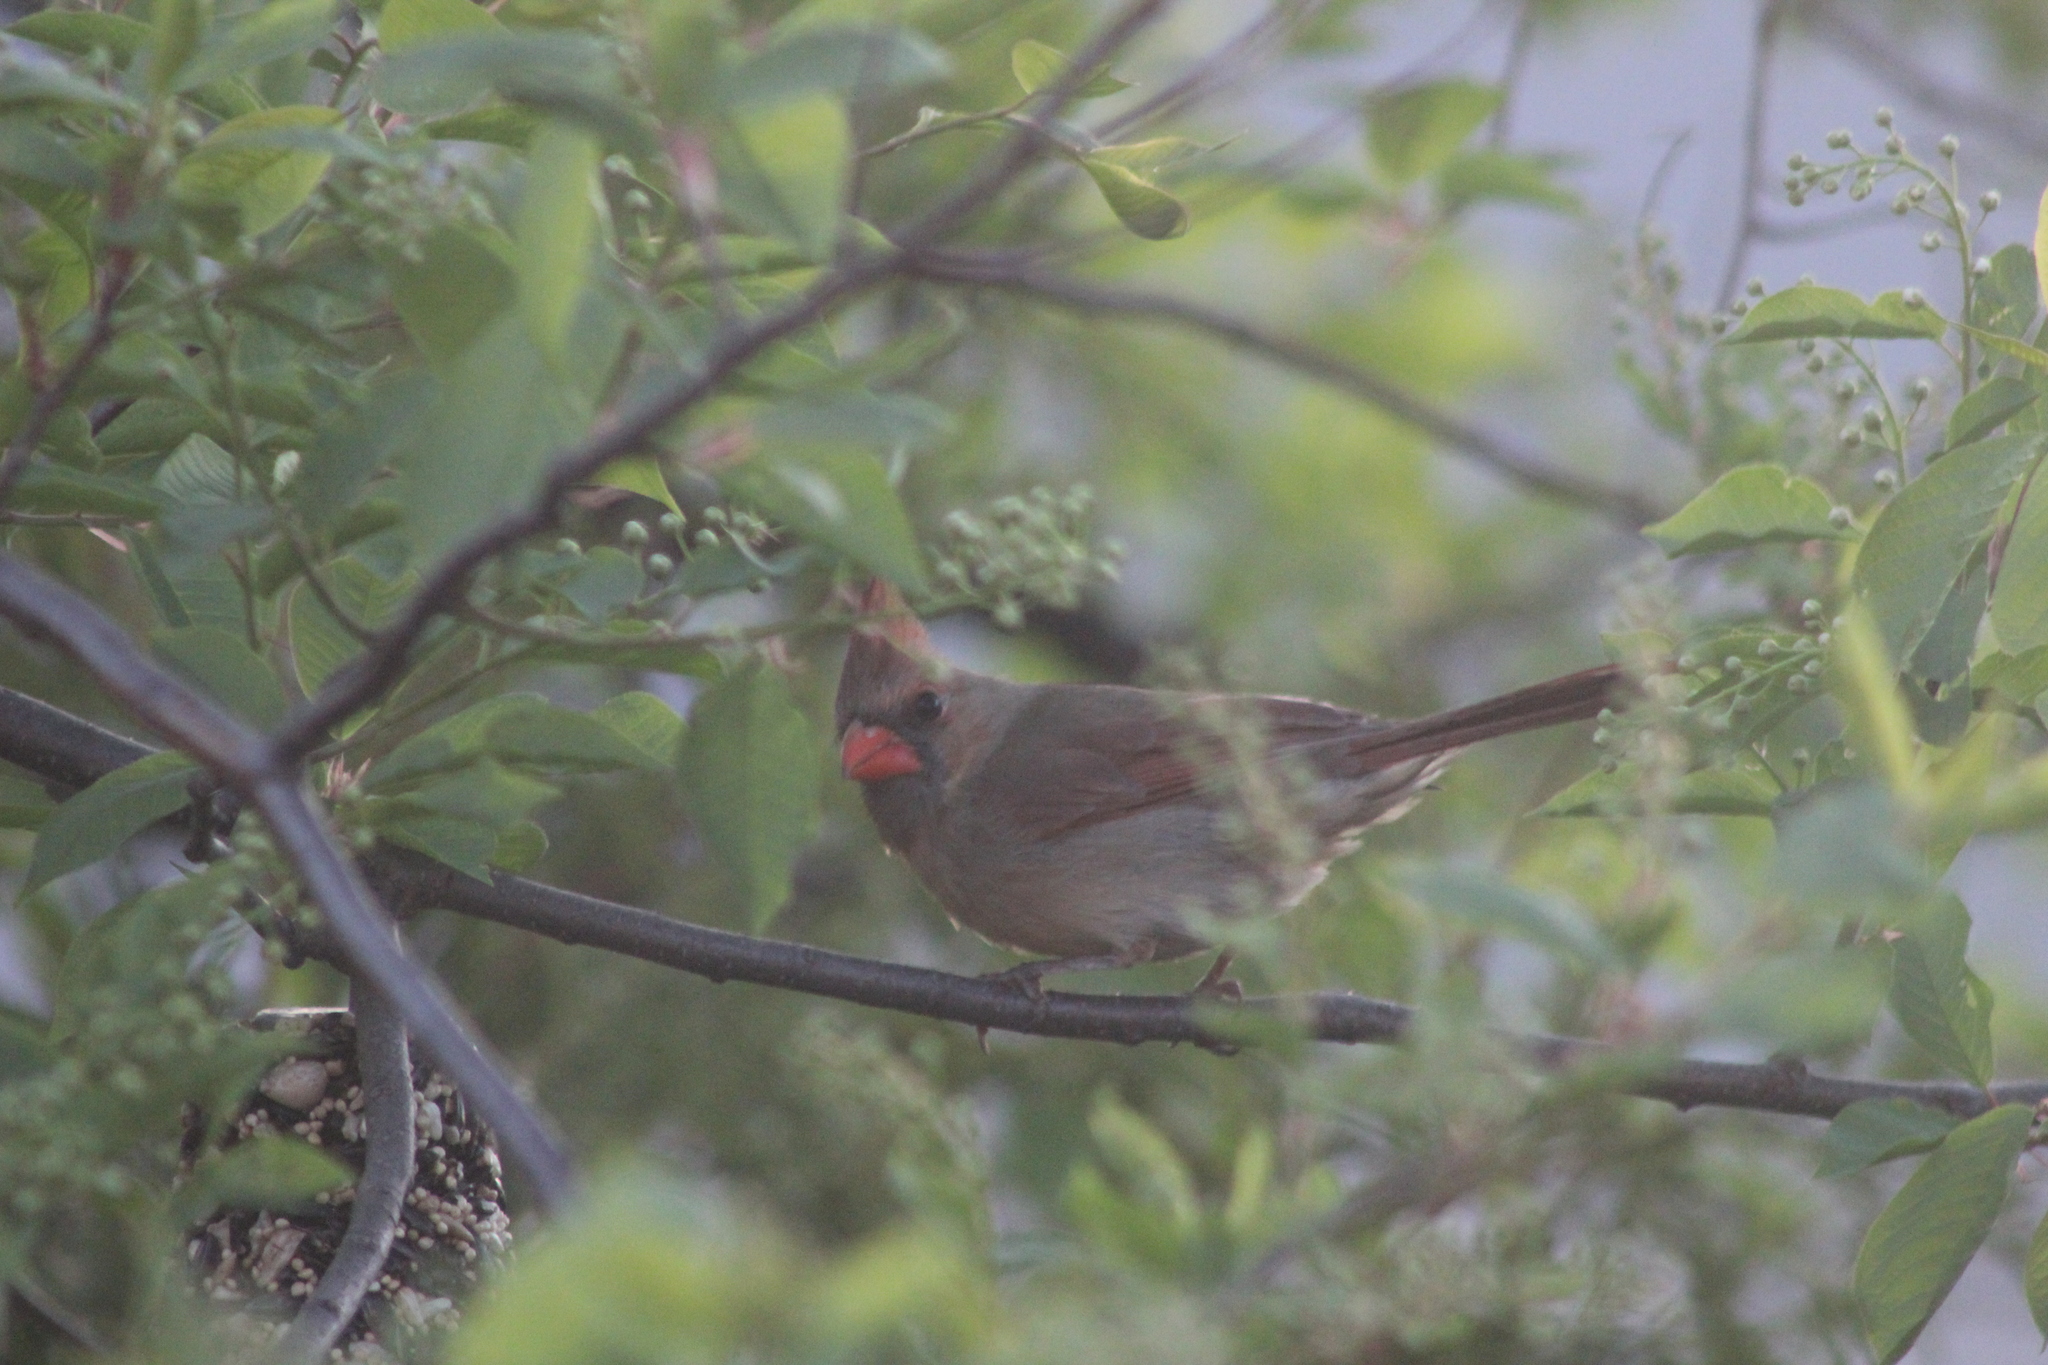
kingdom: Animalia
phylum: Chordata
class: Aves
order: Passeriformes
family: Cardinalidae
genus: Cardinalis
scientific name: Cardinalis cardinalis
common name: Northern cardinal
